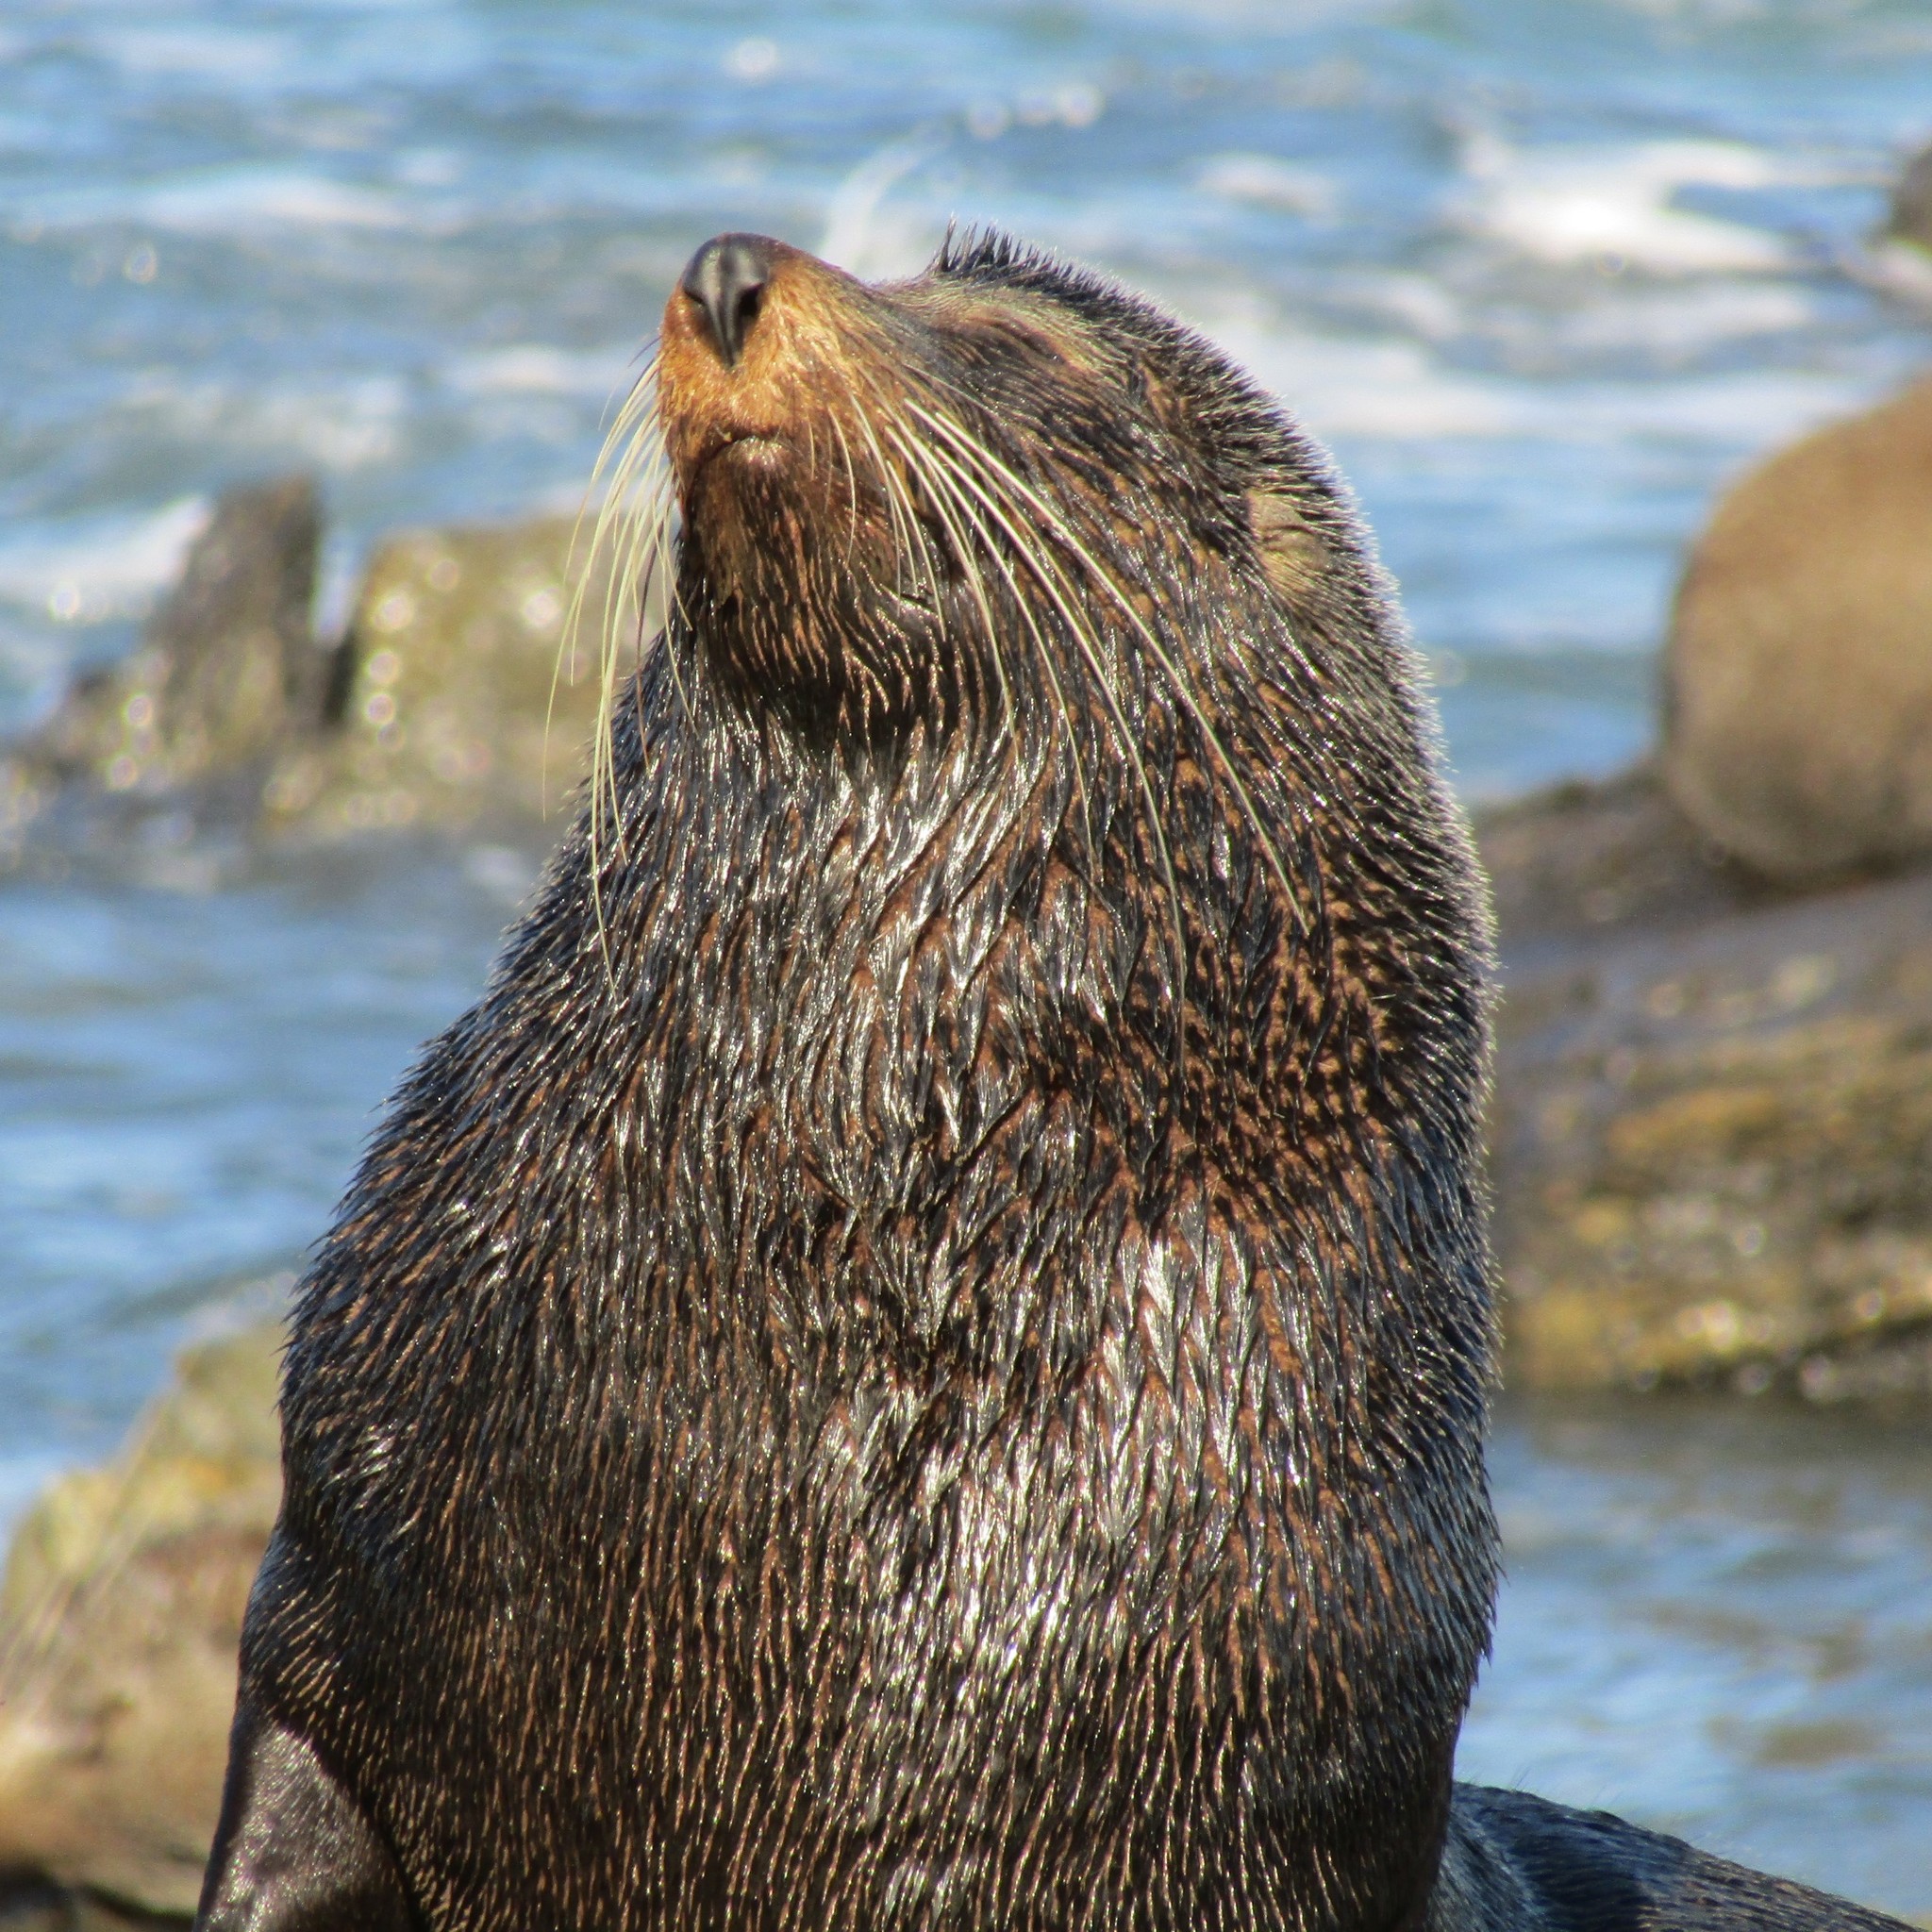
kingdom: Animalia
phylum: Chordata
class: Mammalia
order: Carnivora
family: Otariidae
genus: Arctocephalus
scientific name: Arctocephalus forsteri
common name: New zealand fur seal
